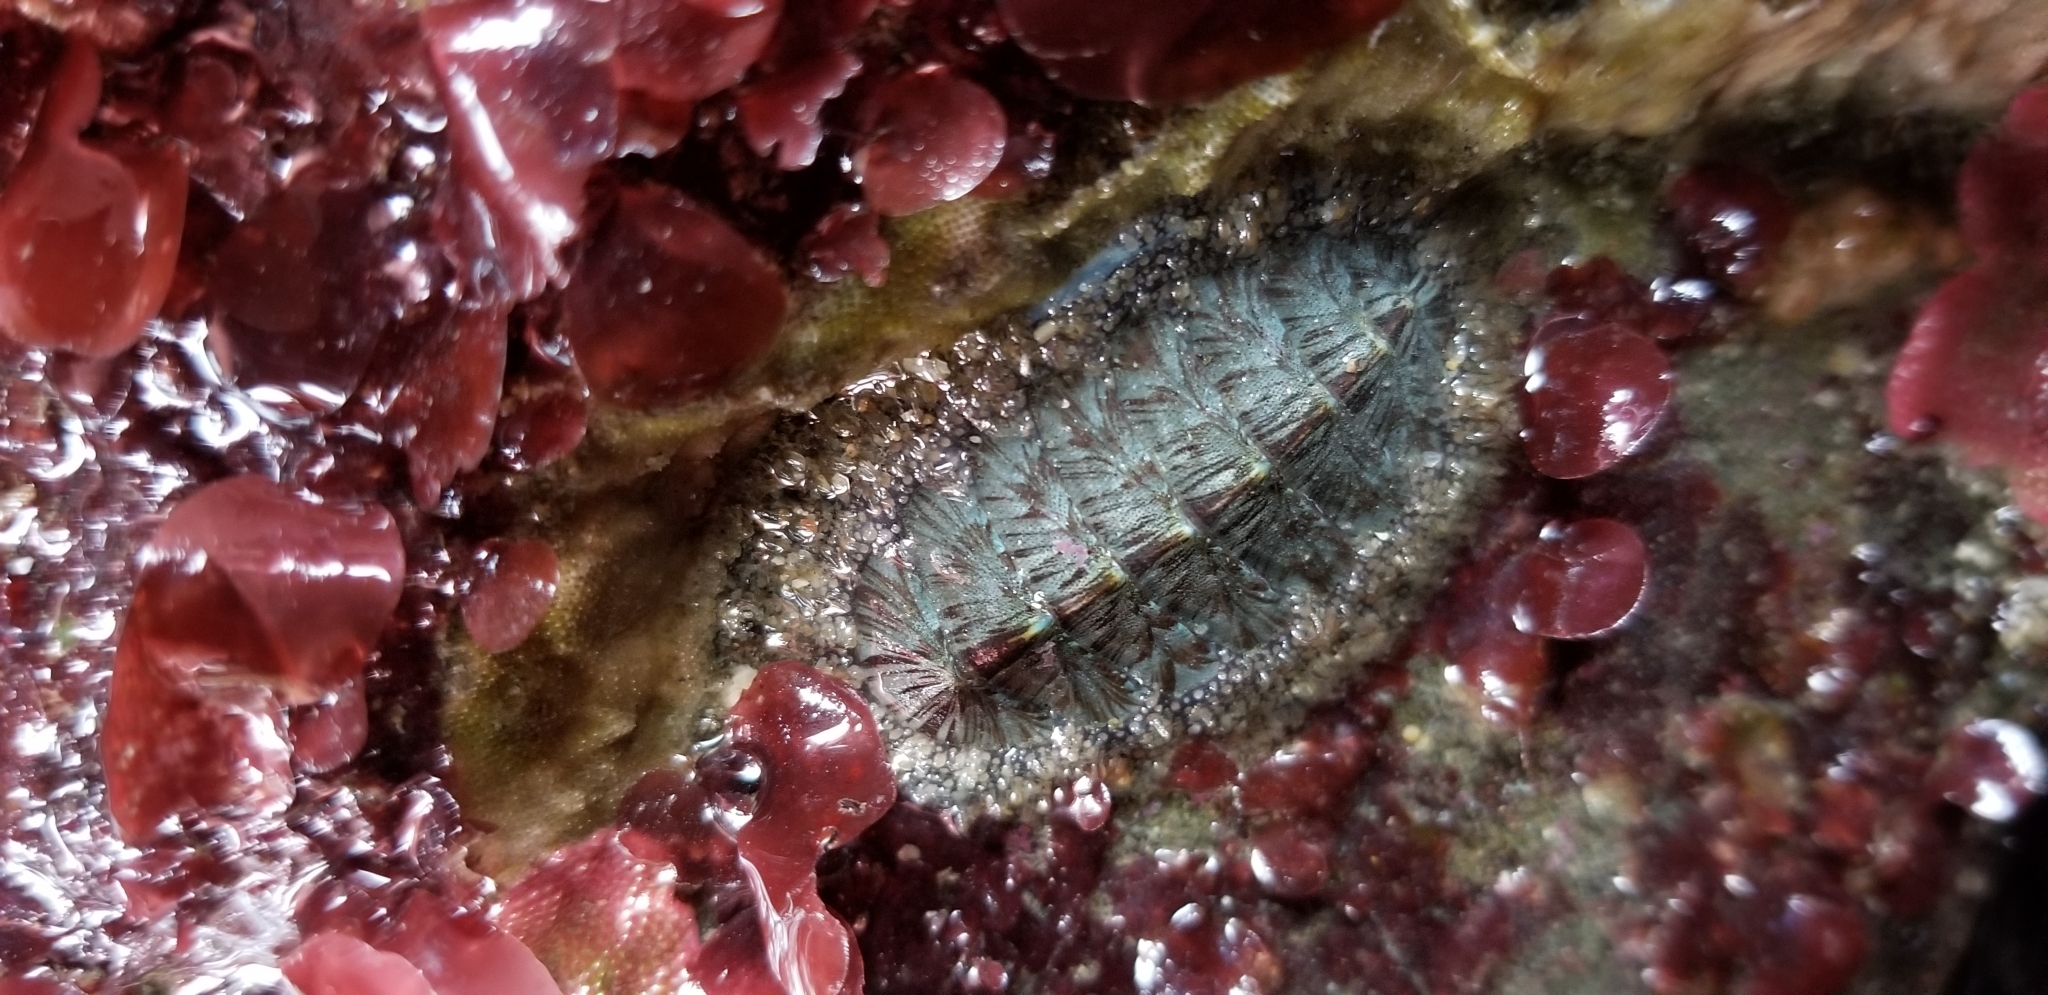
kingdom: Animalia
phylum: Mollusca
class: Polyplacophora
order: Chitonida
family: Mopaliidae
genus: Mopalia
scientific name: Mopalia lignosa
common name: Woody chiton
